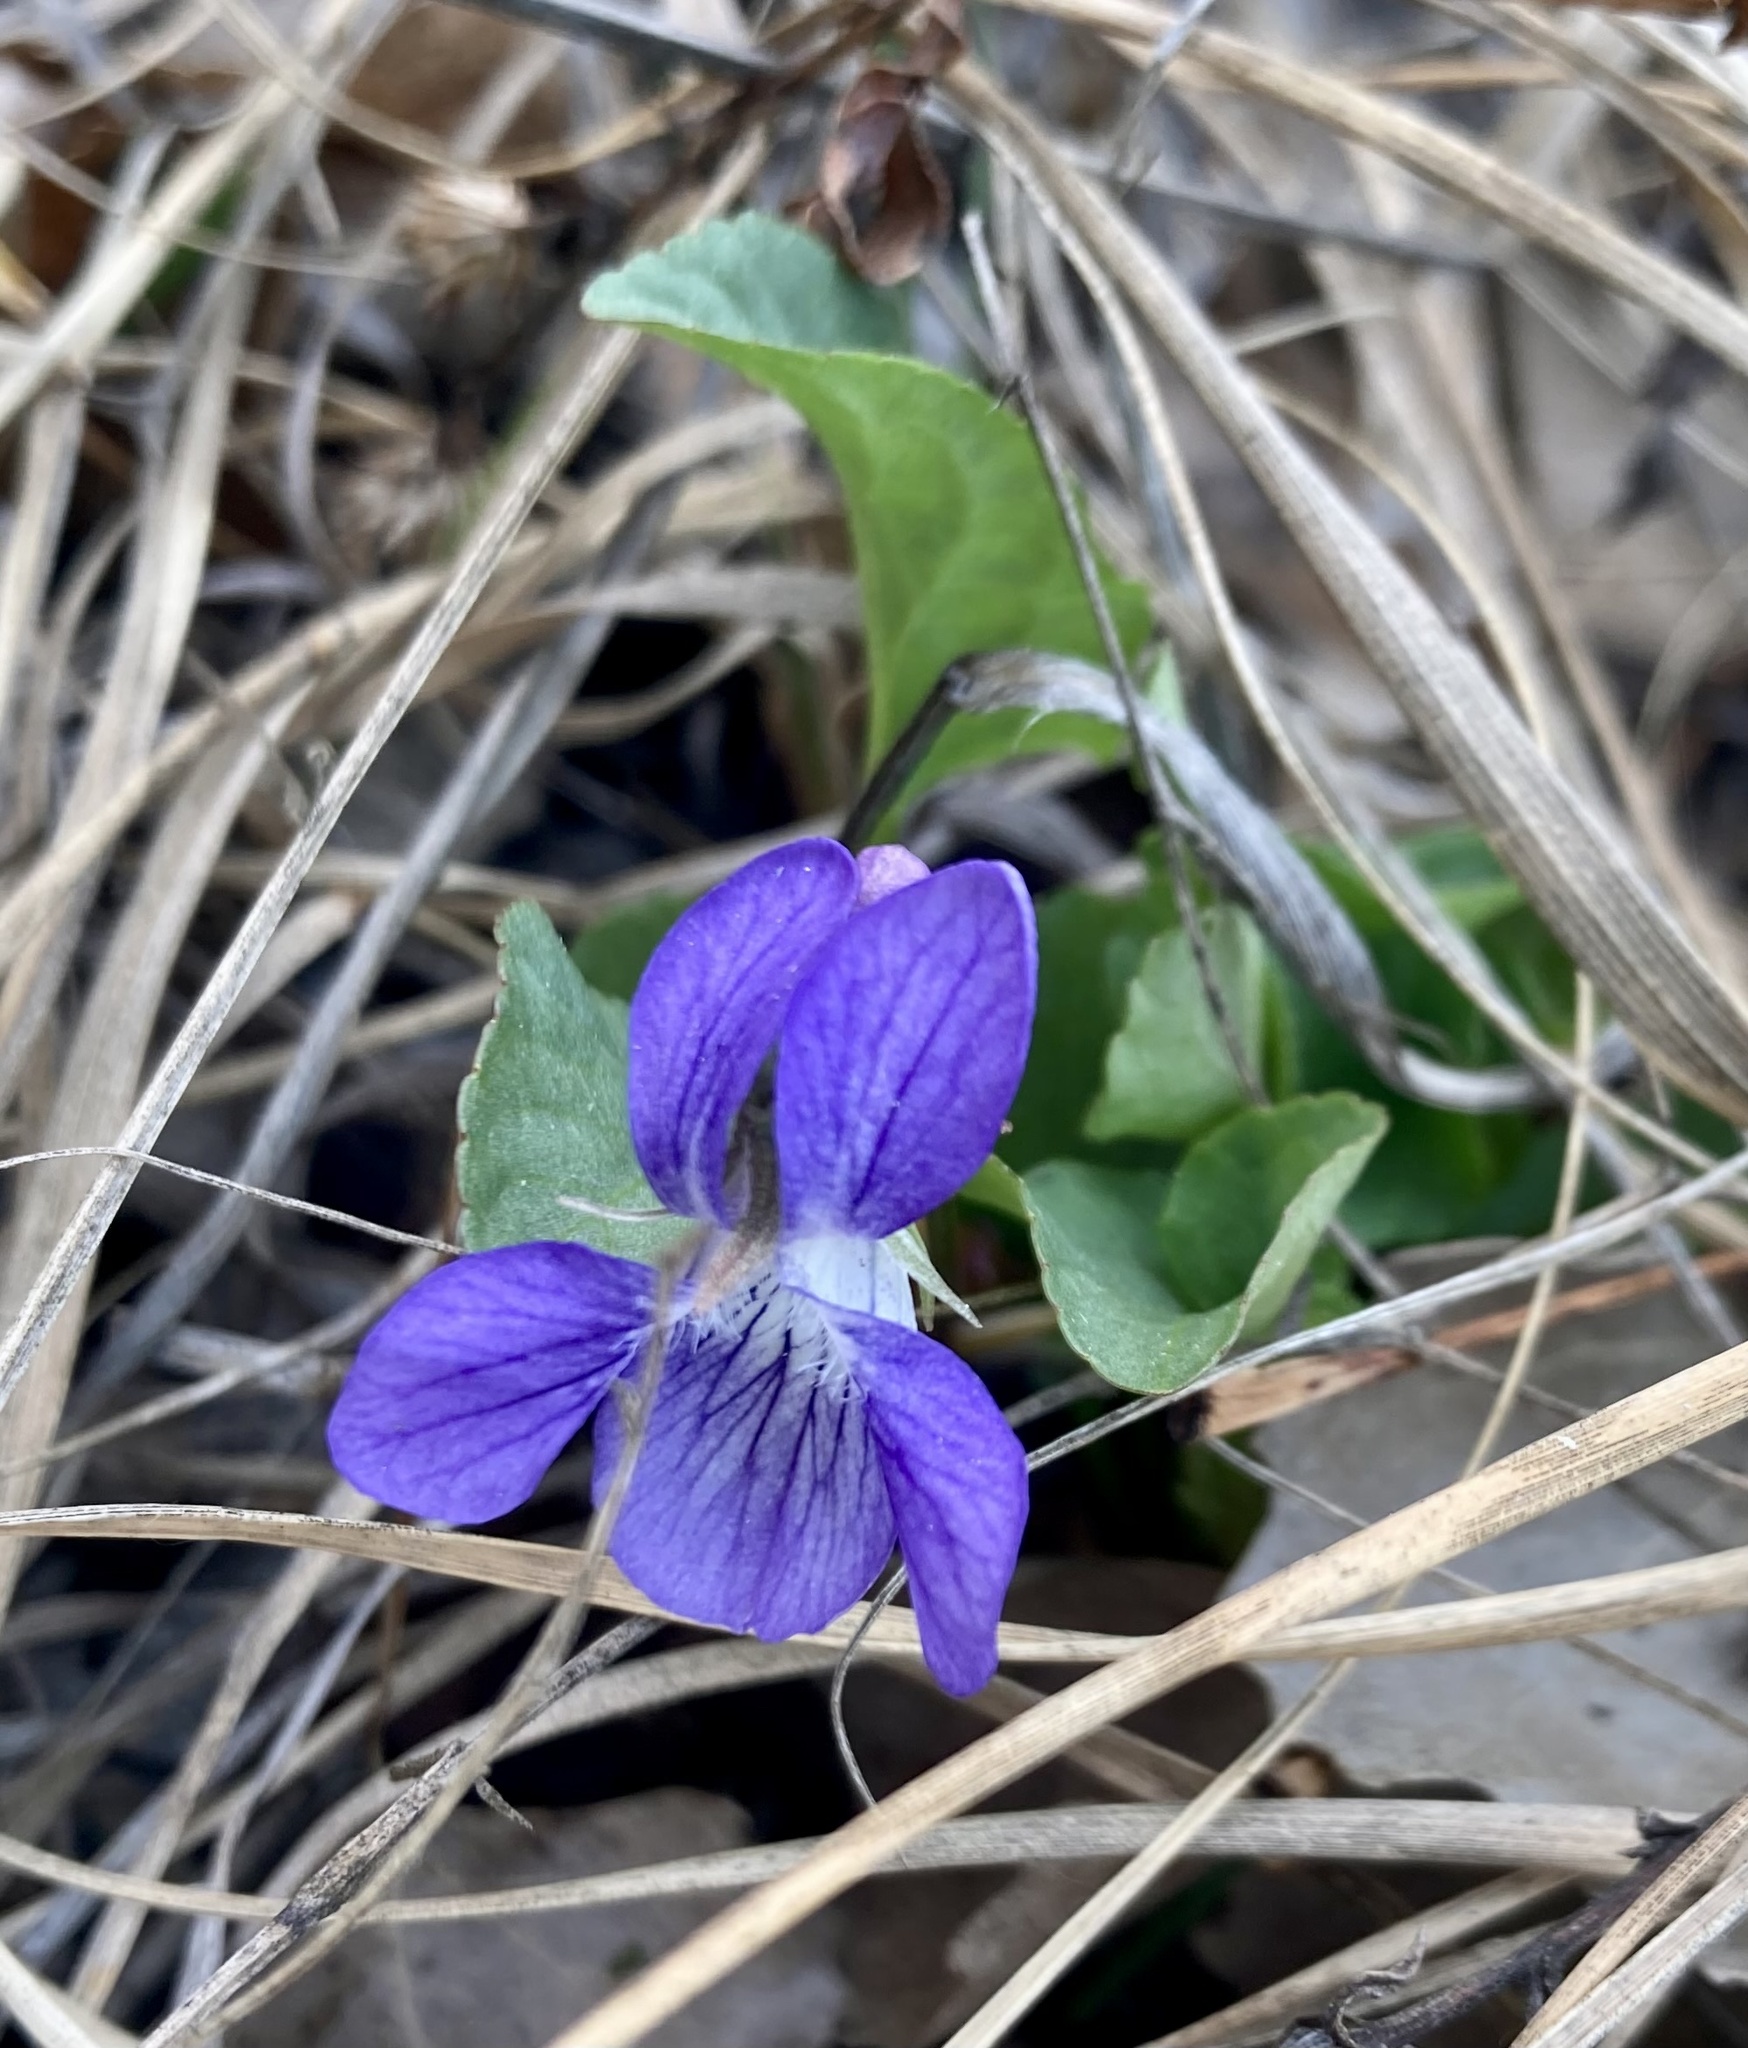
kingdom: Plantae
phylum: Tracheophyta
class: Magnoliopsida
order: Malpighiales
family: Violaceae
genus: Viola
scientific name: Viola adunca
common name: Sand violet
